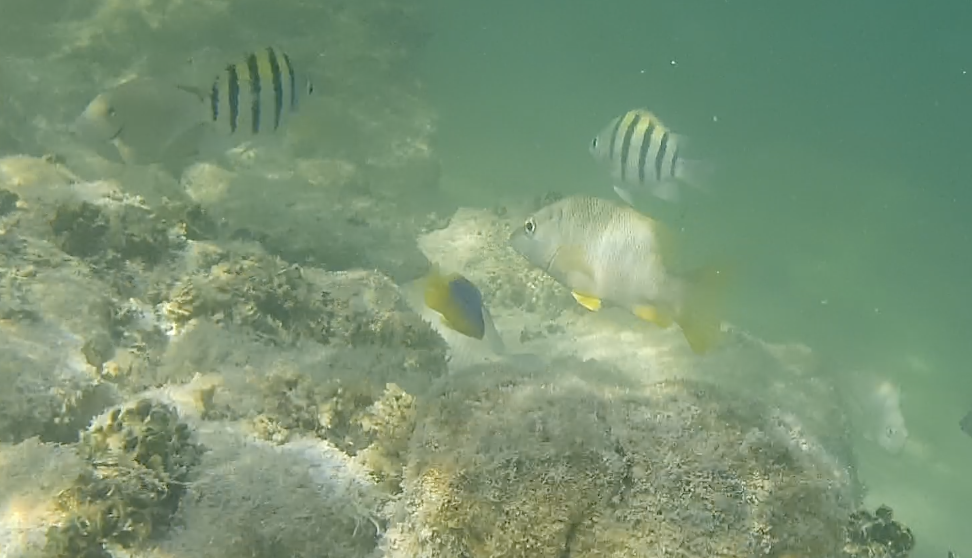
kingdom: Animalia
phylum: Chordata
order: Perciformes
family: Pomacentridae
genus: Stegastes
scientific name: Stegastes leucostictus
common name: Beaugregory
